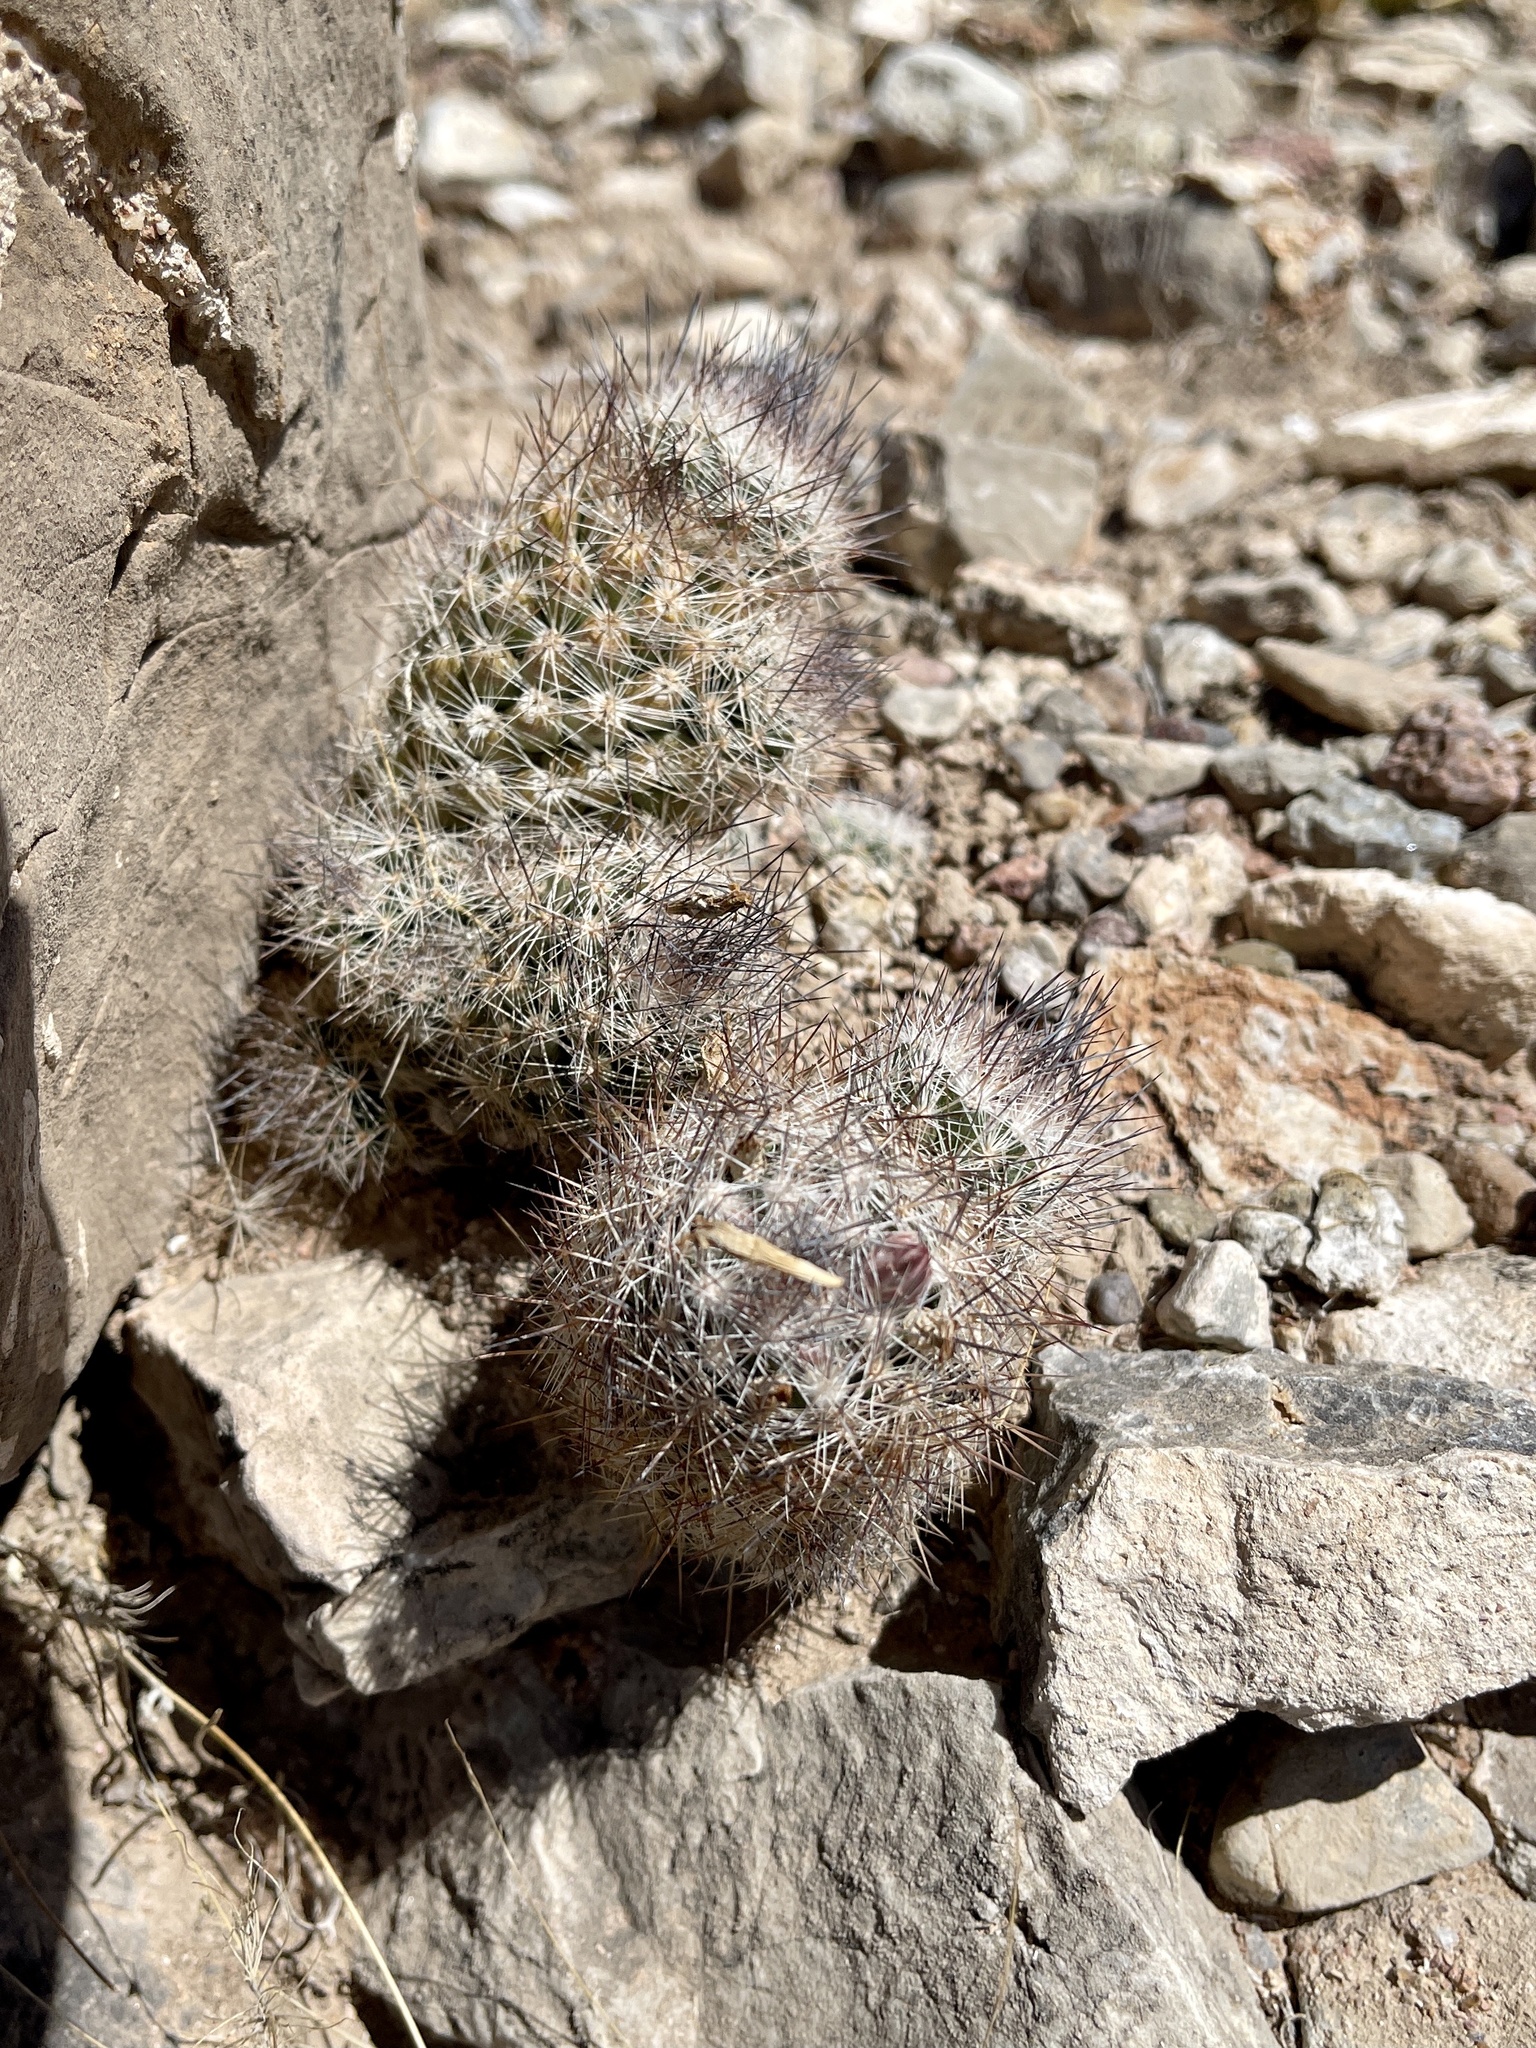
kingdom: Plantae
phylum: Tracheophyta
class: Magnoliopsida
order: Caryophyllales
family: Cactaceae
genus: Pelecyphora
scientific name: Pelecyphora tuberculosa
